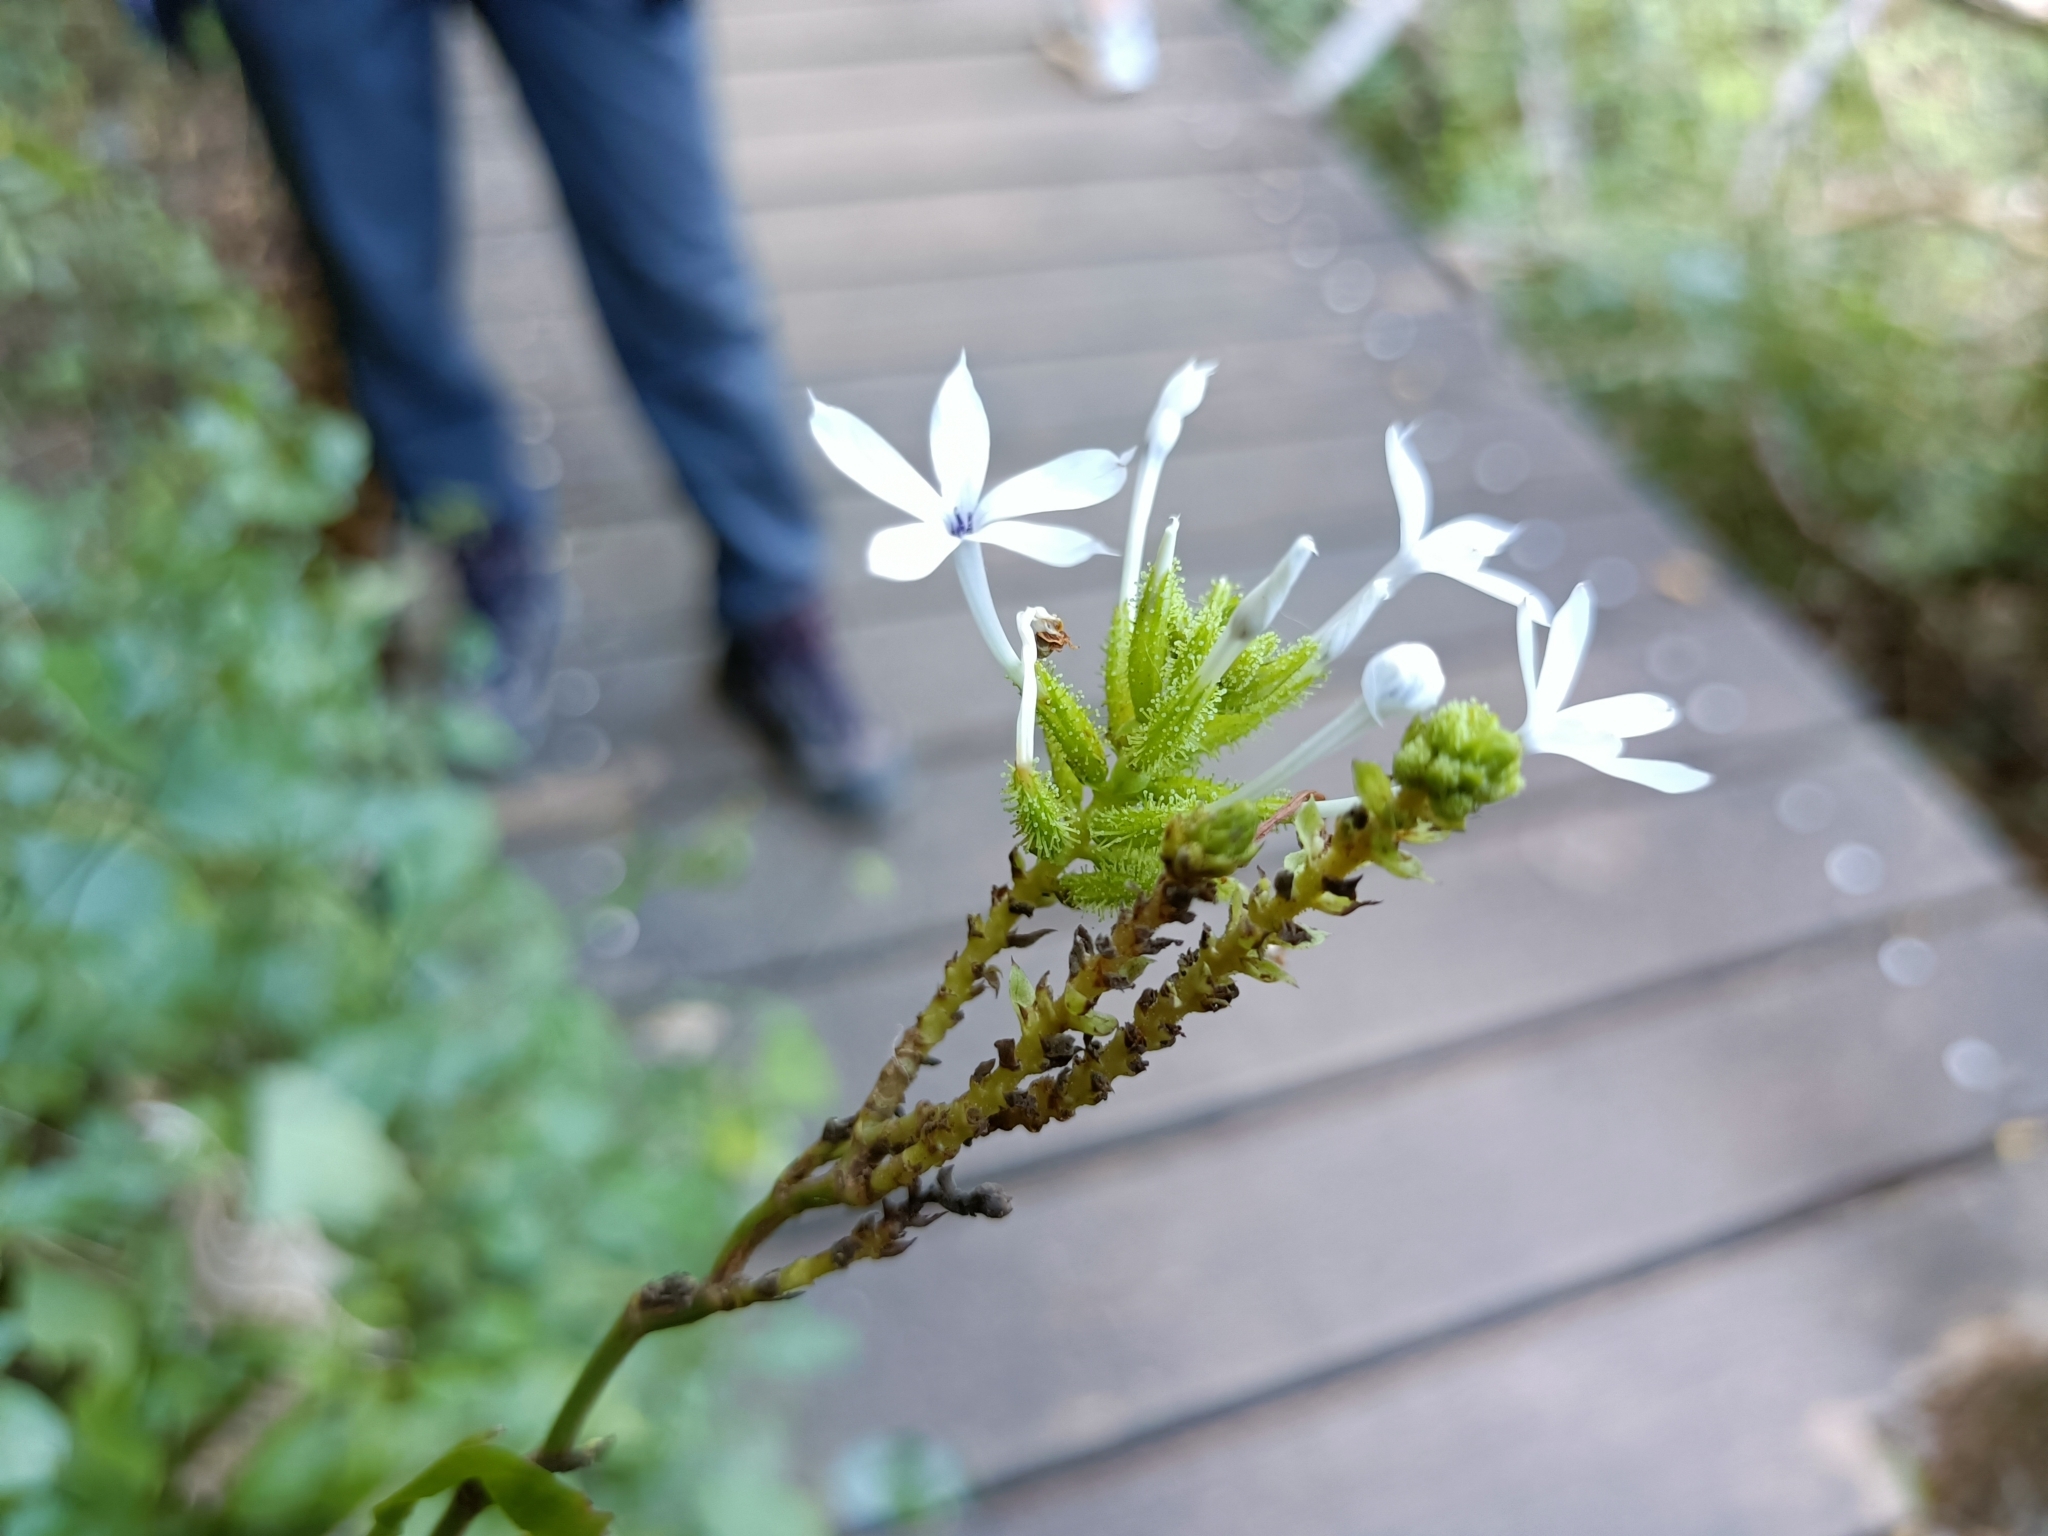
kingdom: Plantae
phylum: Tracheophyta
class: Magnoliopsida
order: Caryophyllales
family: Plumbaginaceae
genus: Plumbago
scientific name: Plumbago zeylanica
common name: Doctorbush
